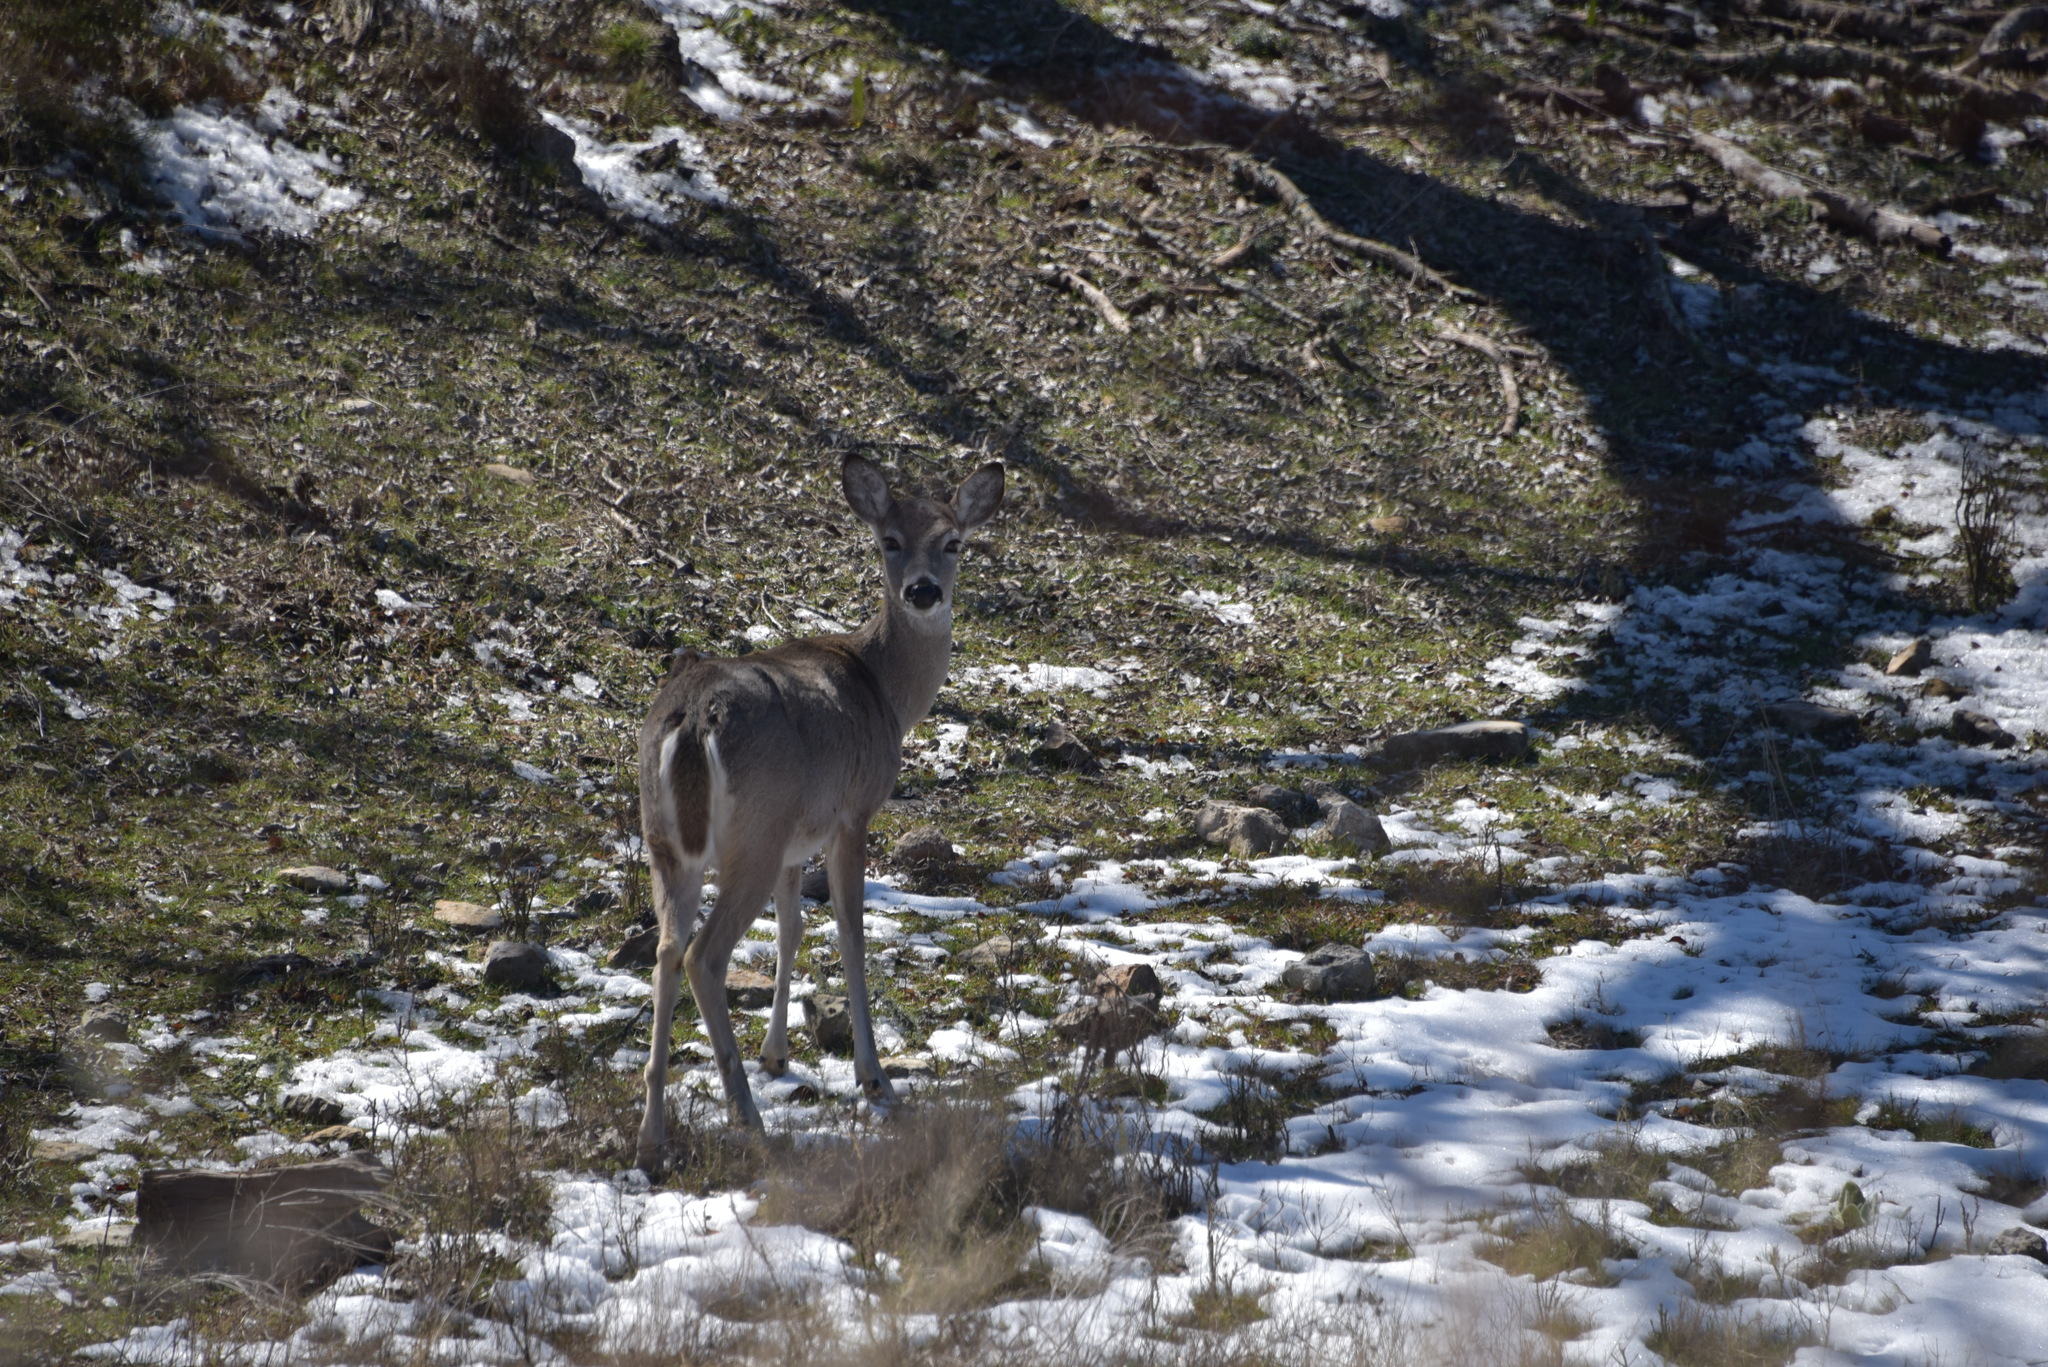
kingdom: Animalia
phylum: Chordata
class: Mammalia
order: Artiodactyla
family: Cervidae
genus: Odocoileus
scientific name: Odocoileus virginianus
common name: White-tailed deer
